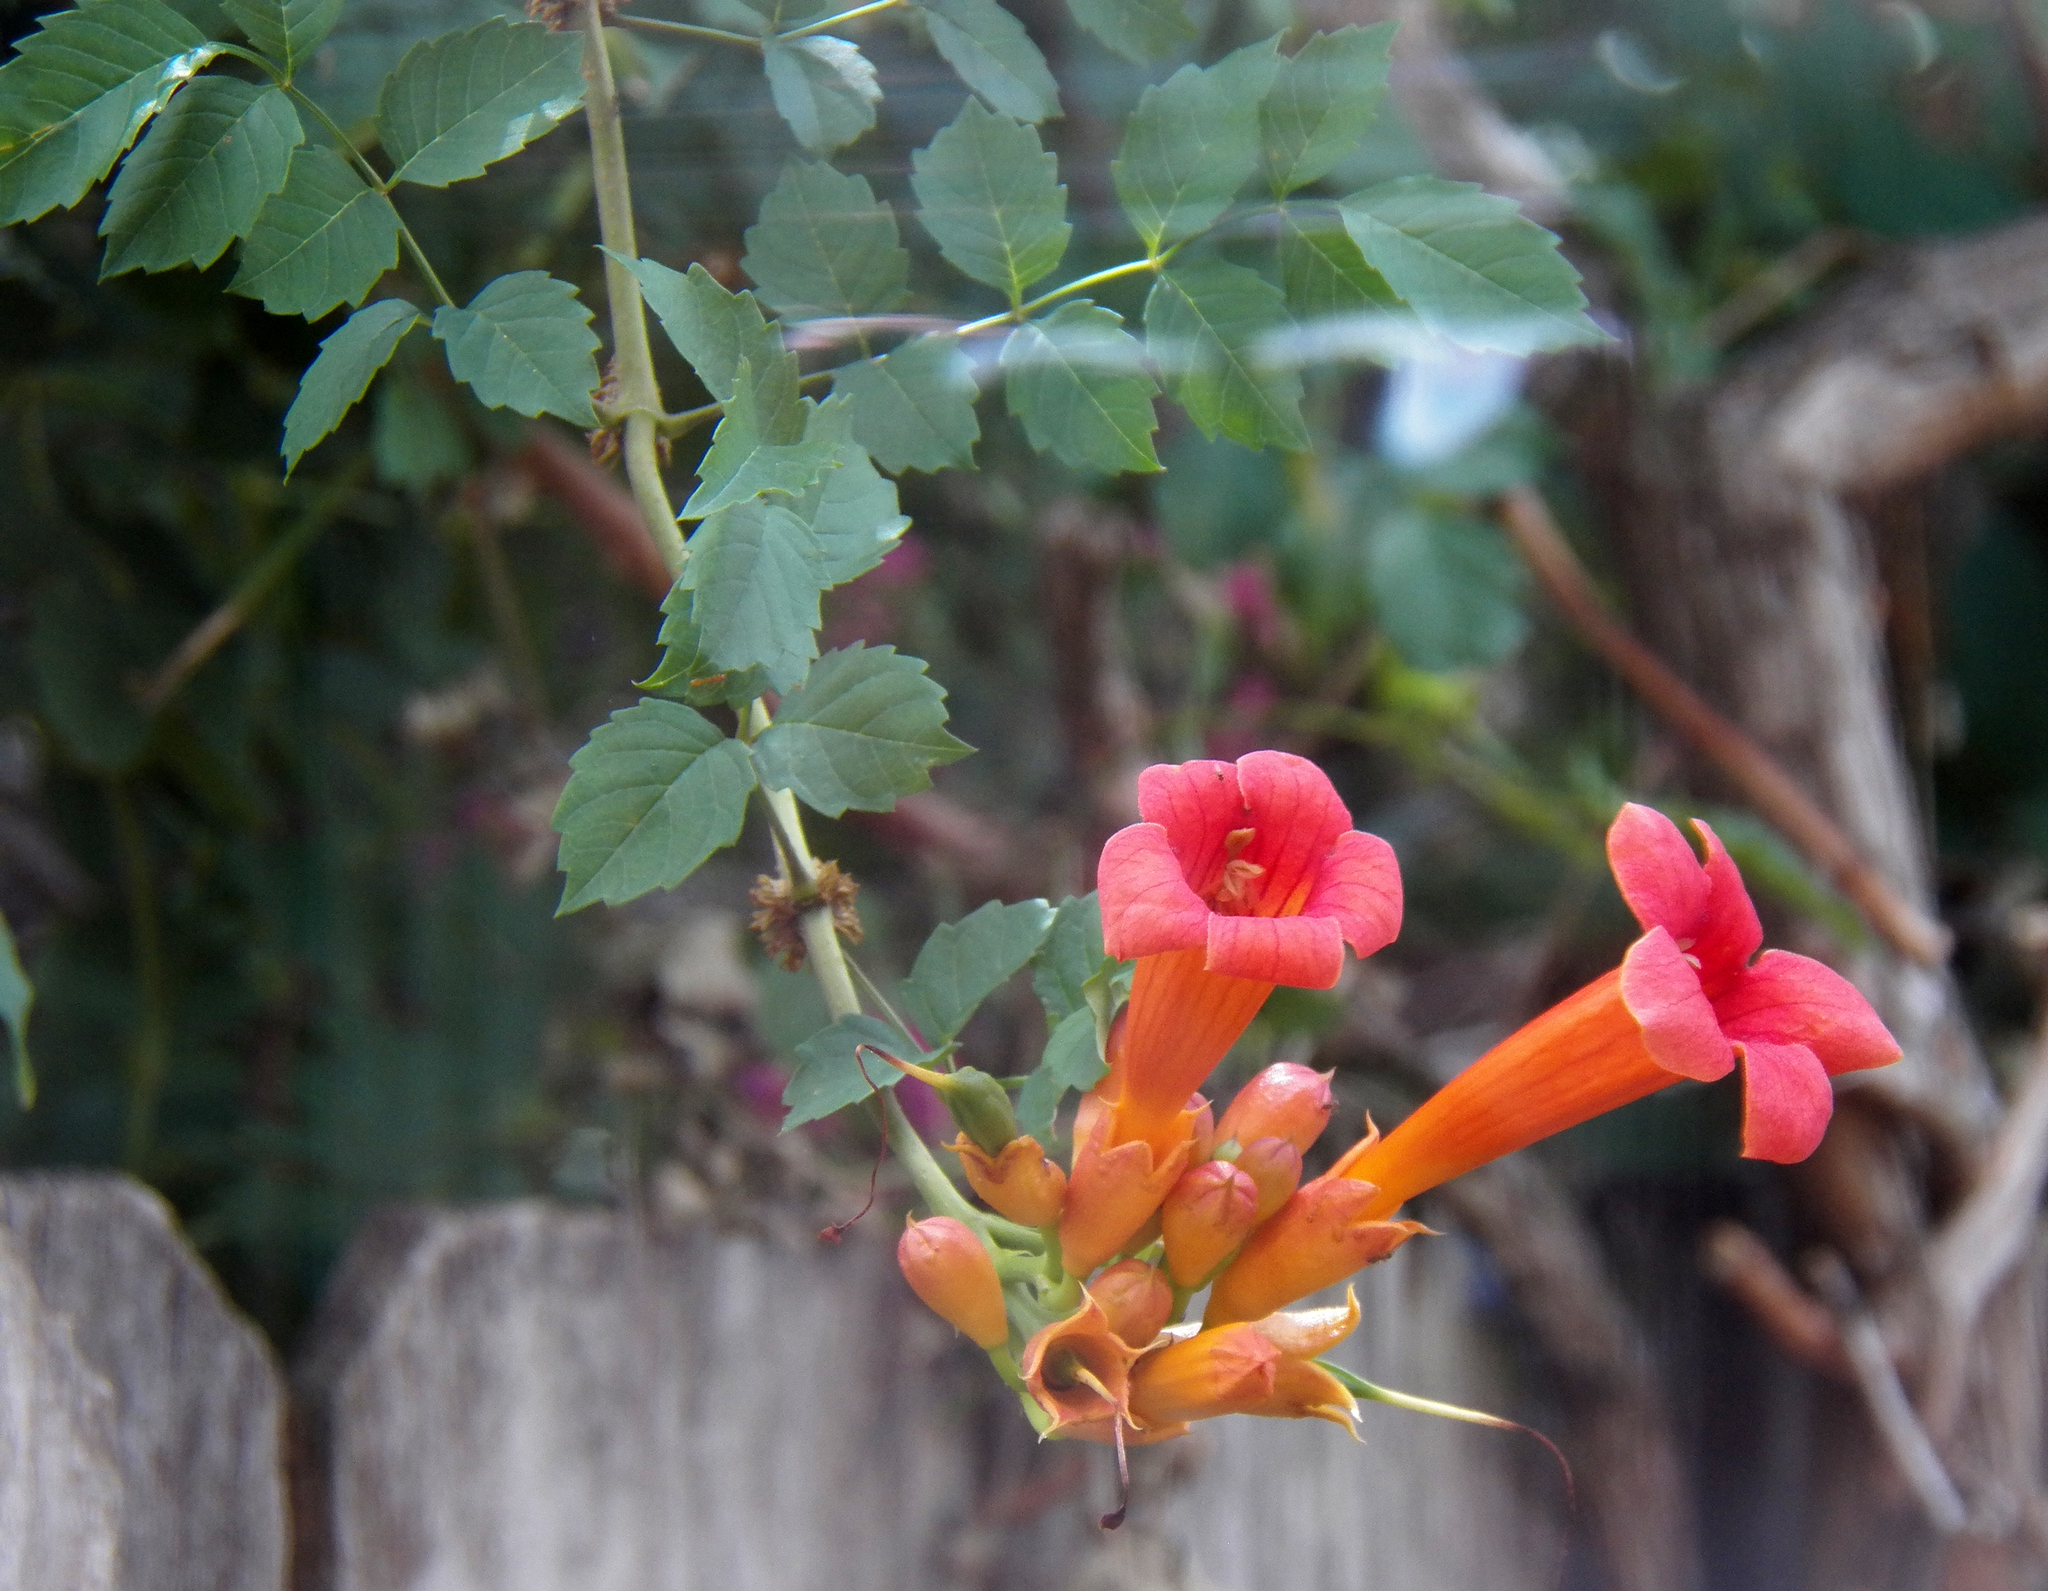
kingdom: Plantae
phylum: Tracheophyta
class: Magnoliopsida
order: Lamiales
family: Bignoniaceae
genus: Campsis
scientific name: Campsis radicans
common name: Trumpet-creeper
